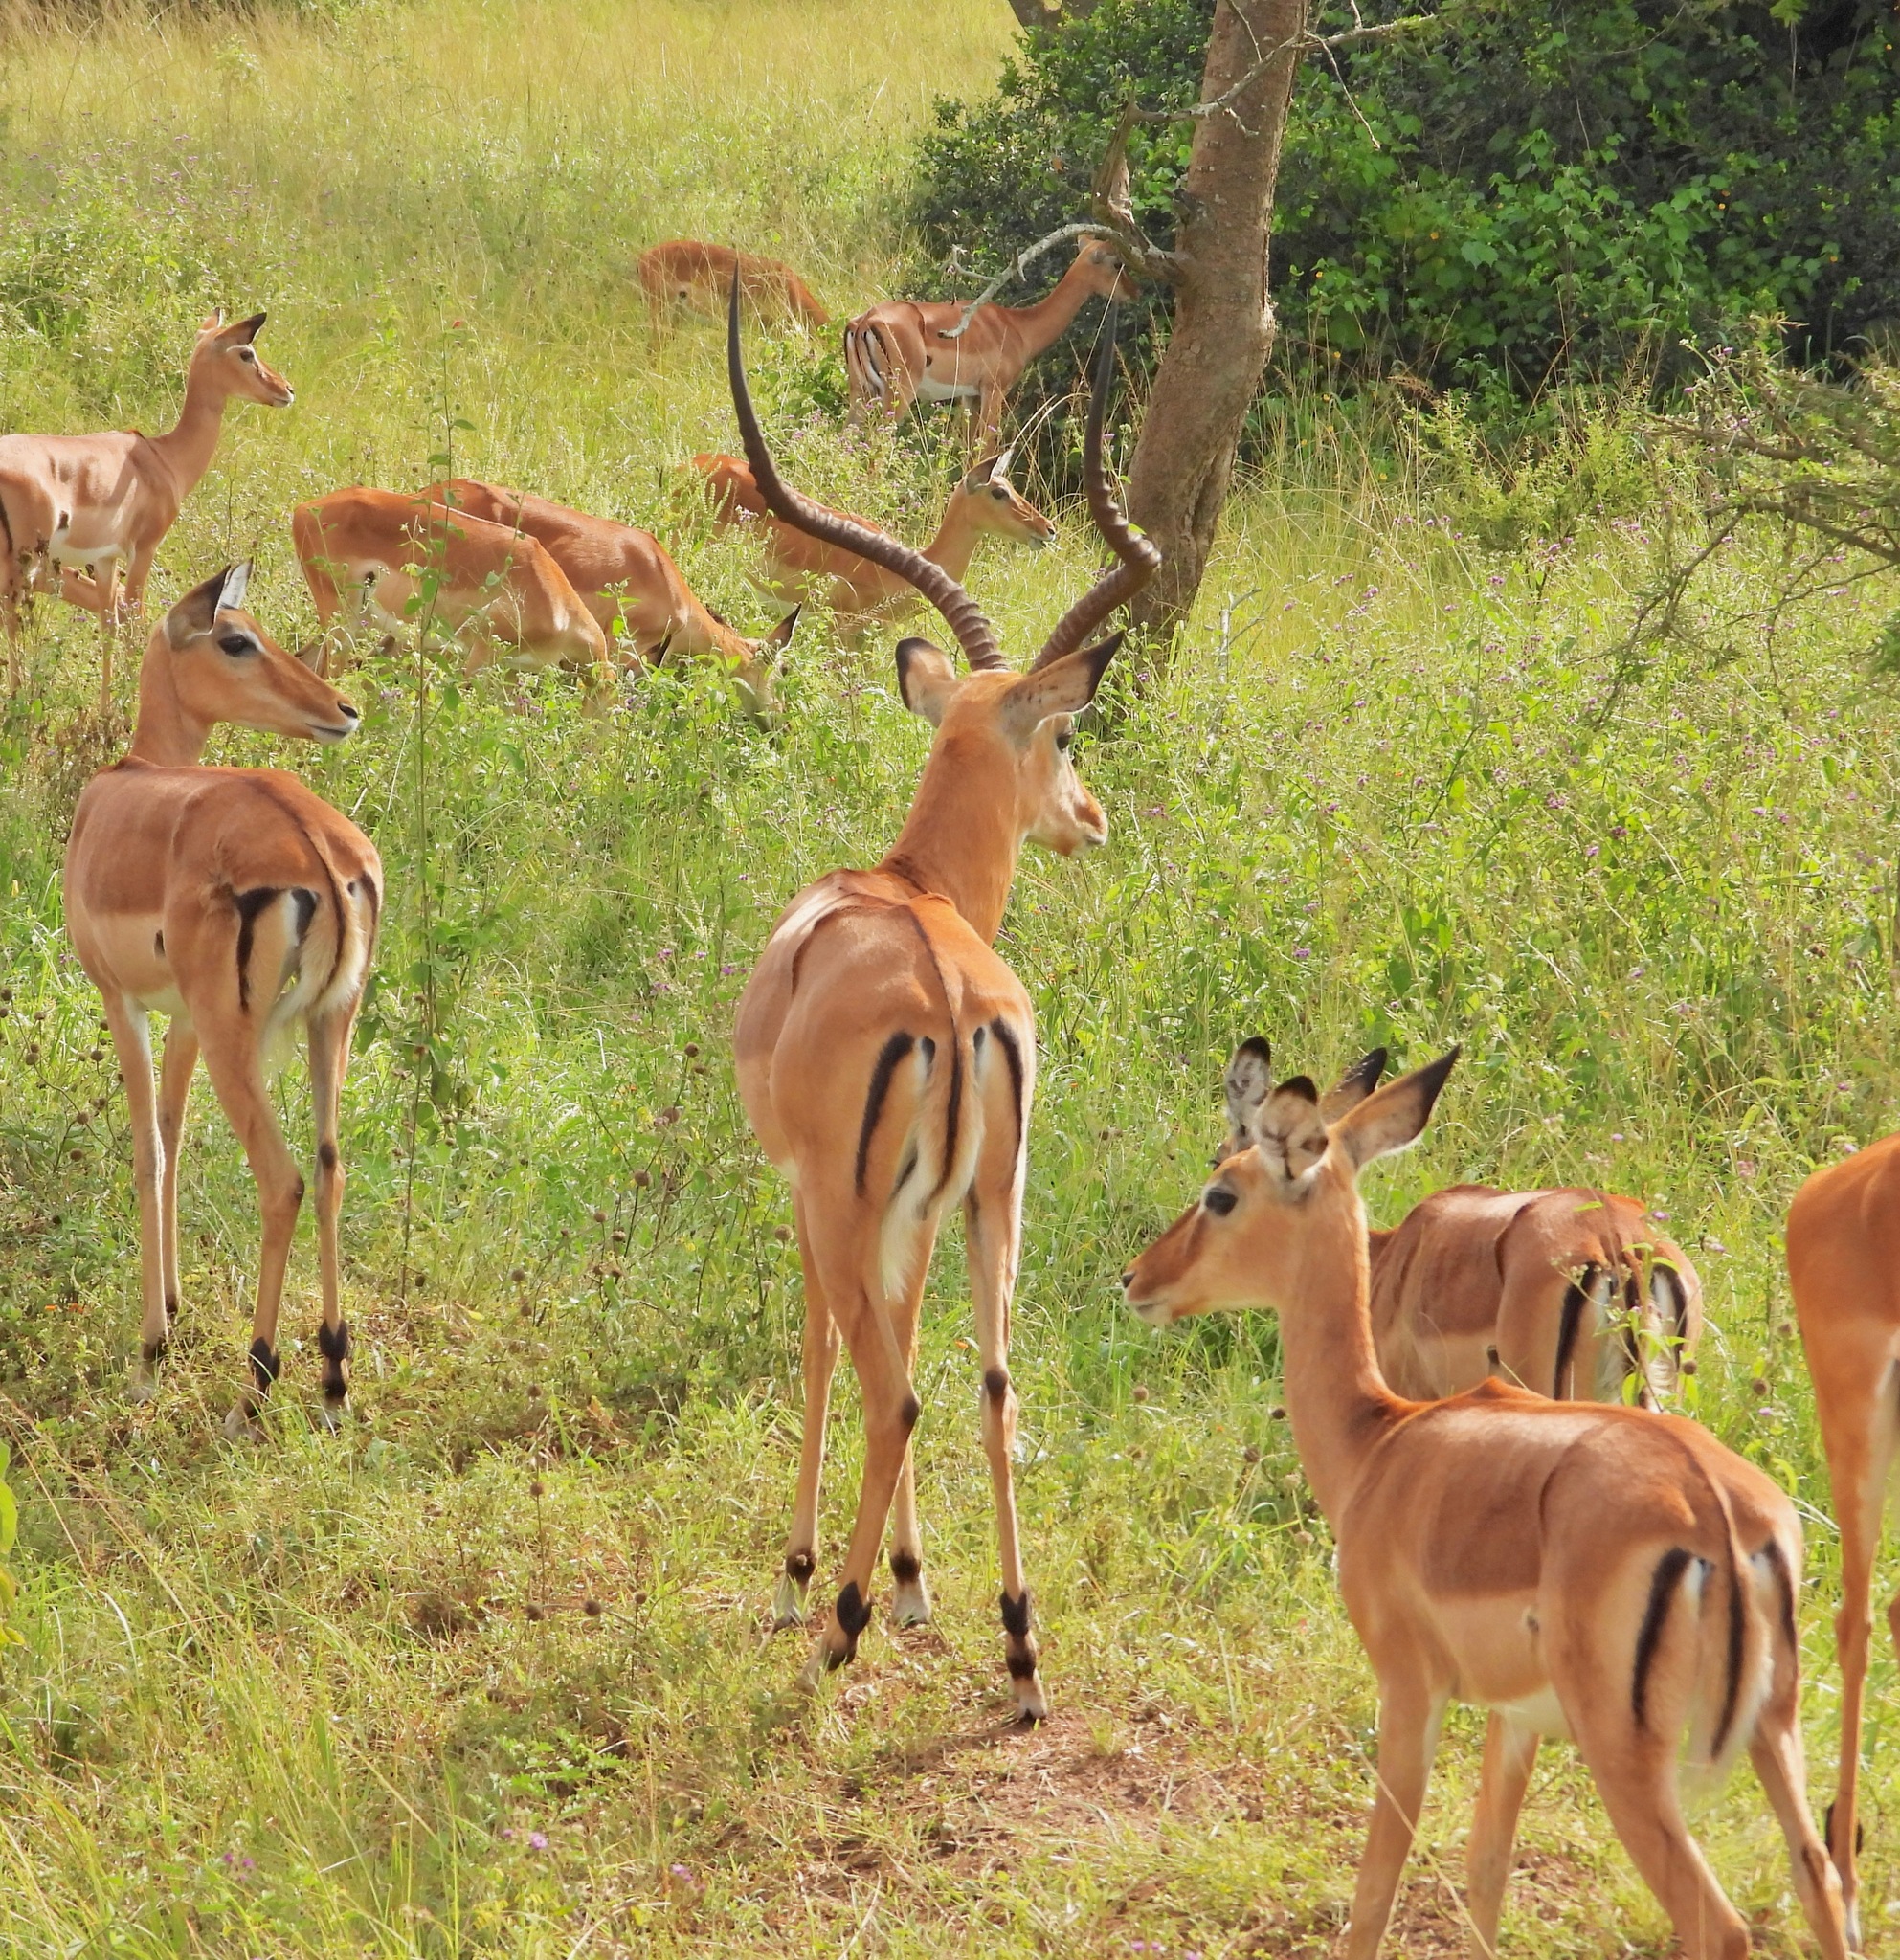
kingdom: Animalia
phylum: Chordata
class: Mammalia
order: Artiodactyla
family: Bovidae
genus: Aepyceros
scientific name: Aepyceros melampus
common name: Impala
